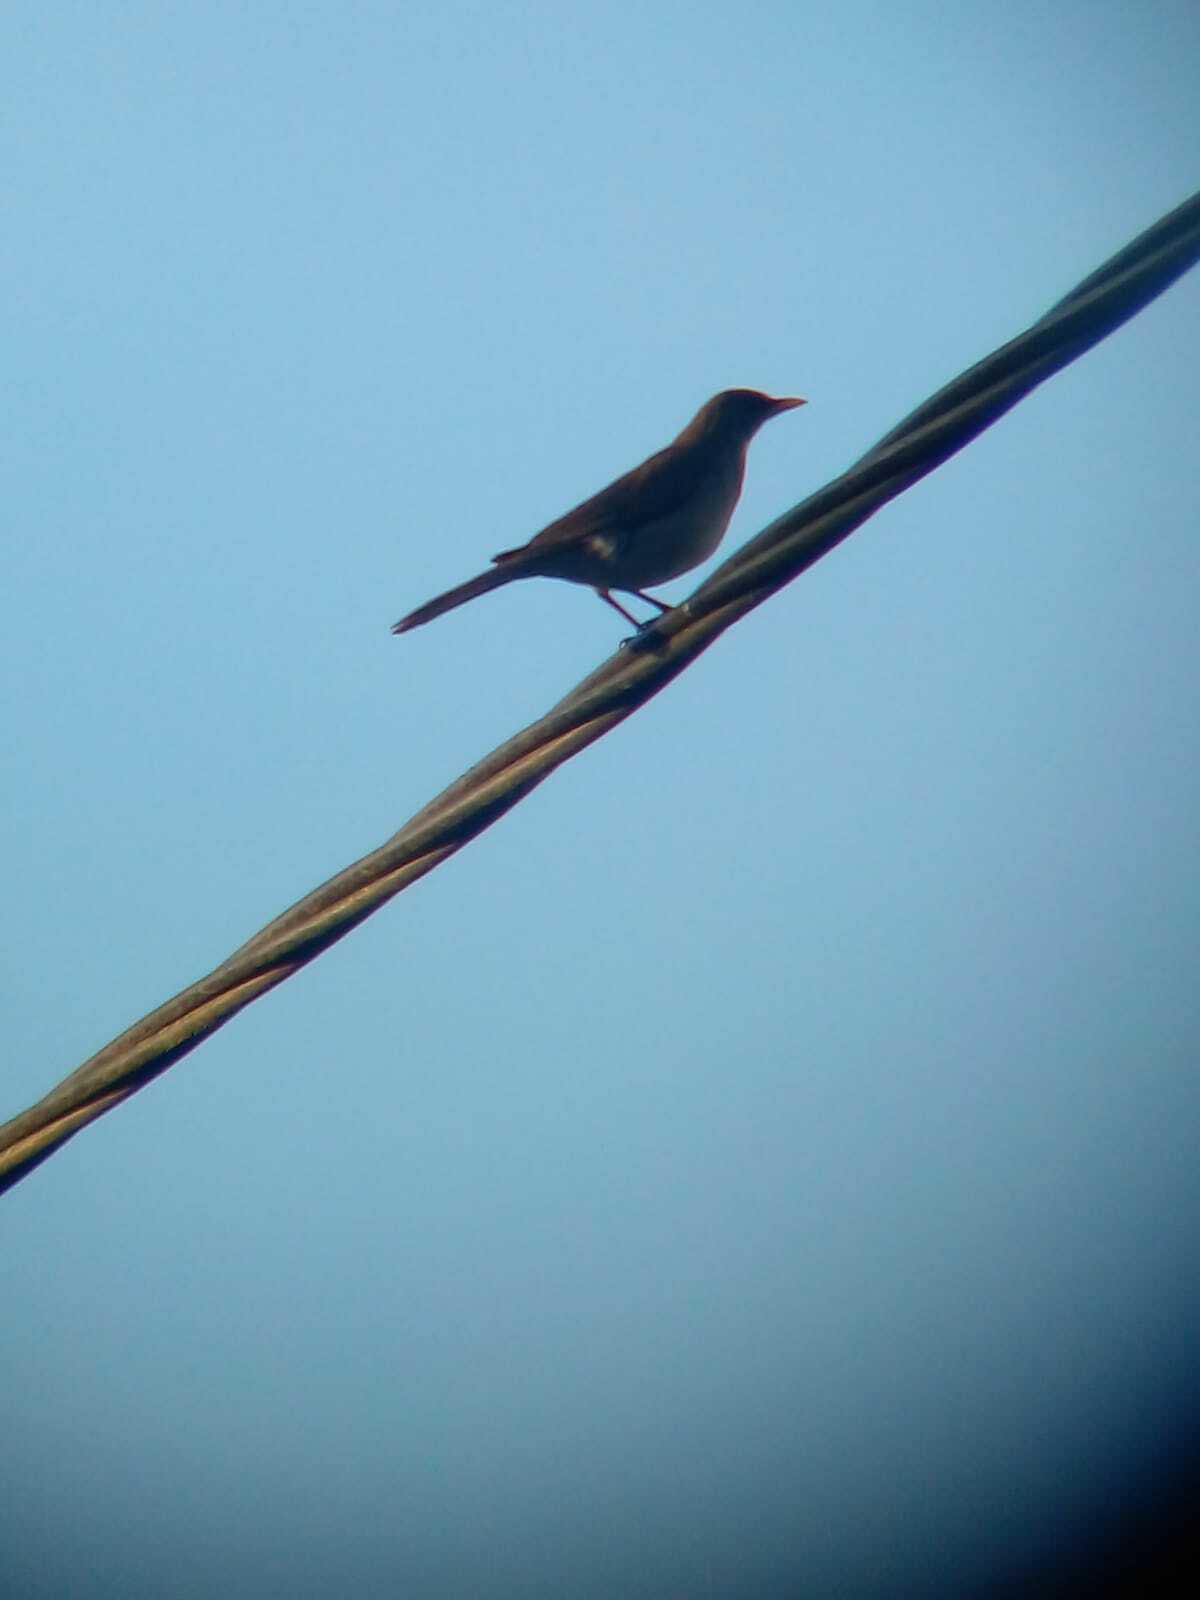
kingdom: Animalia
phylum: Chordata
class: Aves
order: Passeriformes
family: Turdidae
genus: Turdus
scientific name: Turdus amaurochalinus
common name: Creamy-bellied thrush
